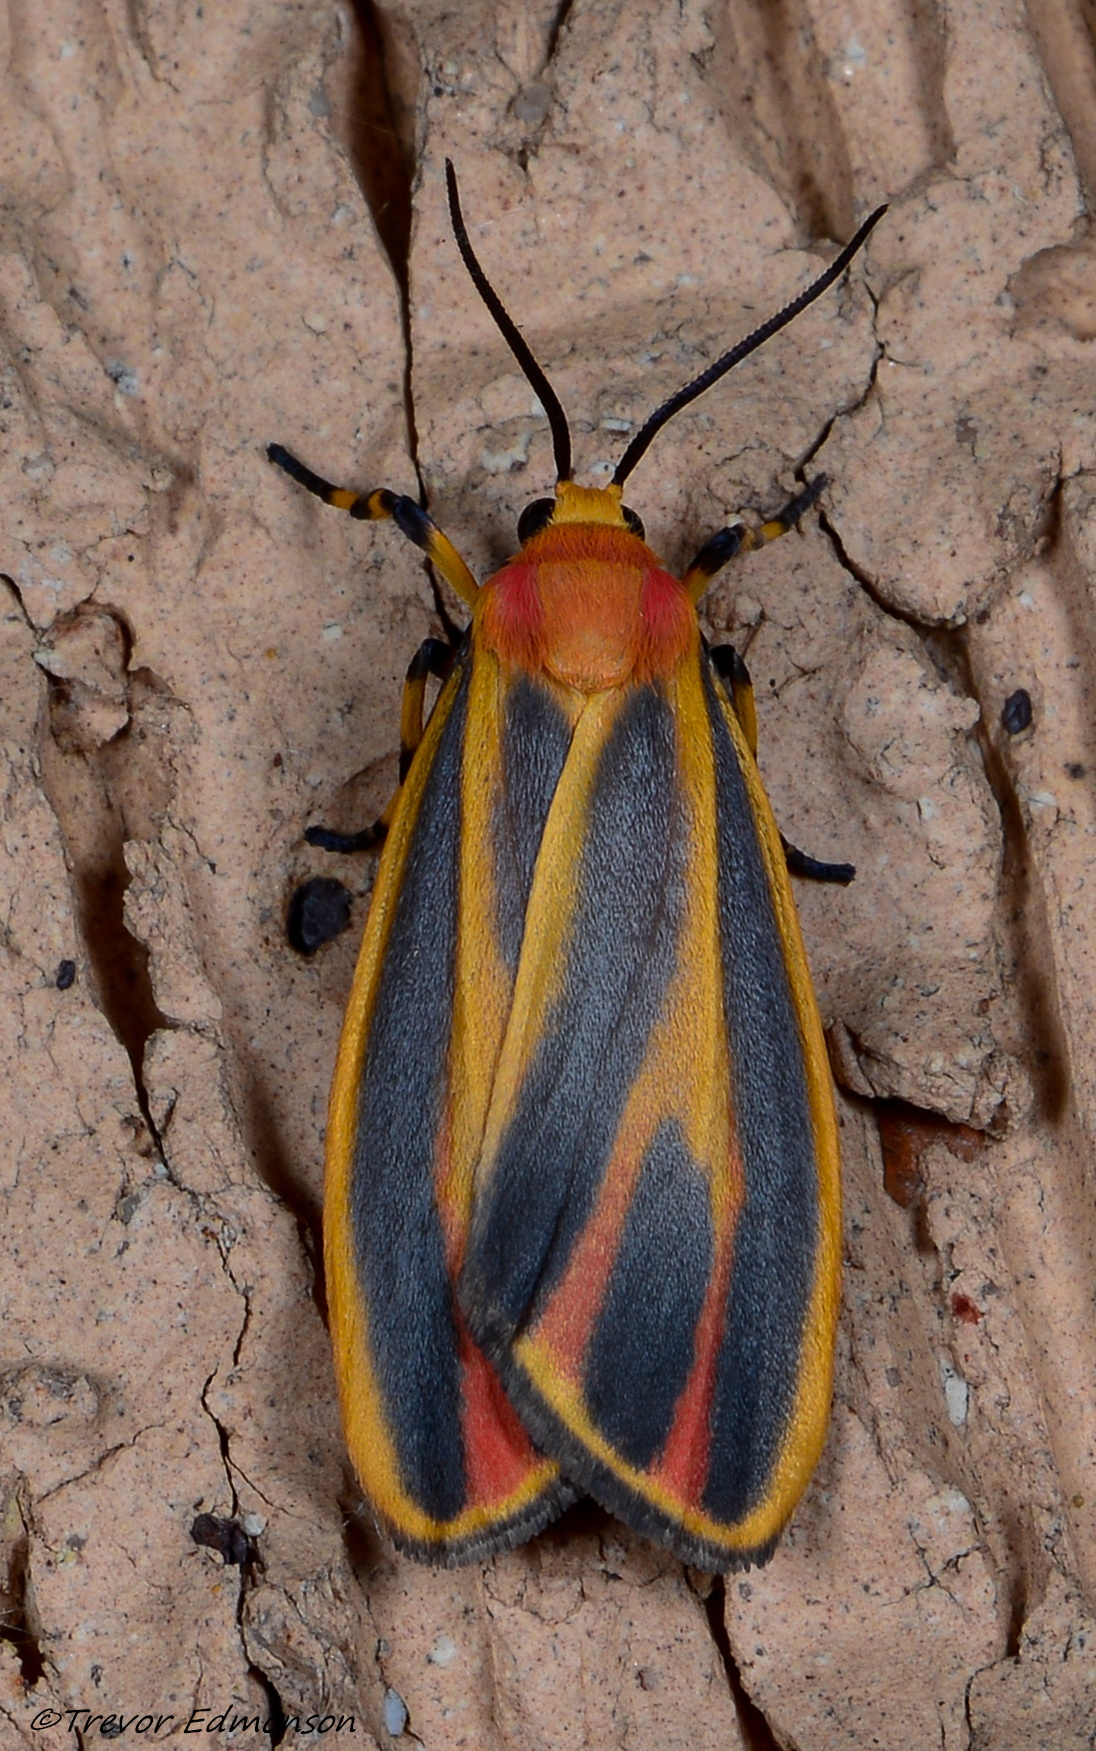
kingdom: Animalia
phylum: Arthropoda
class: Insecta
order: Lepidoptera
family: Erebidae
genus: Hypoprepia
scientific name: Hypoprepia fucosa
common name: Painted lichen moth
